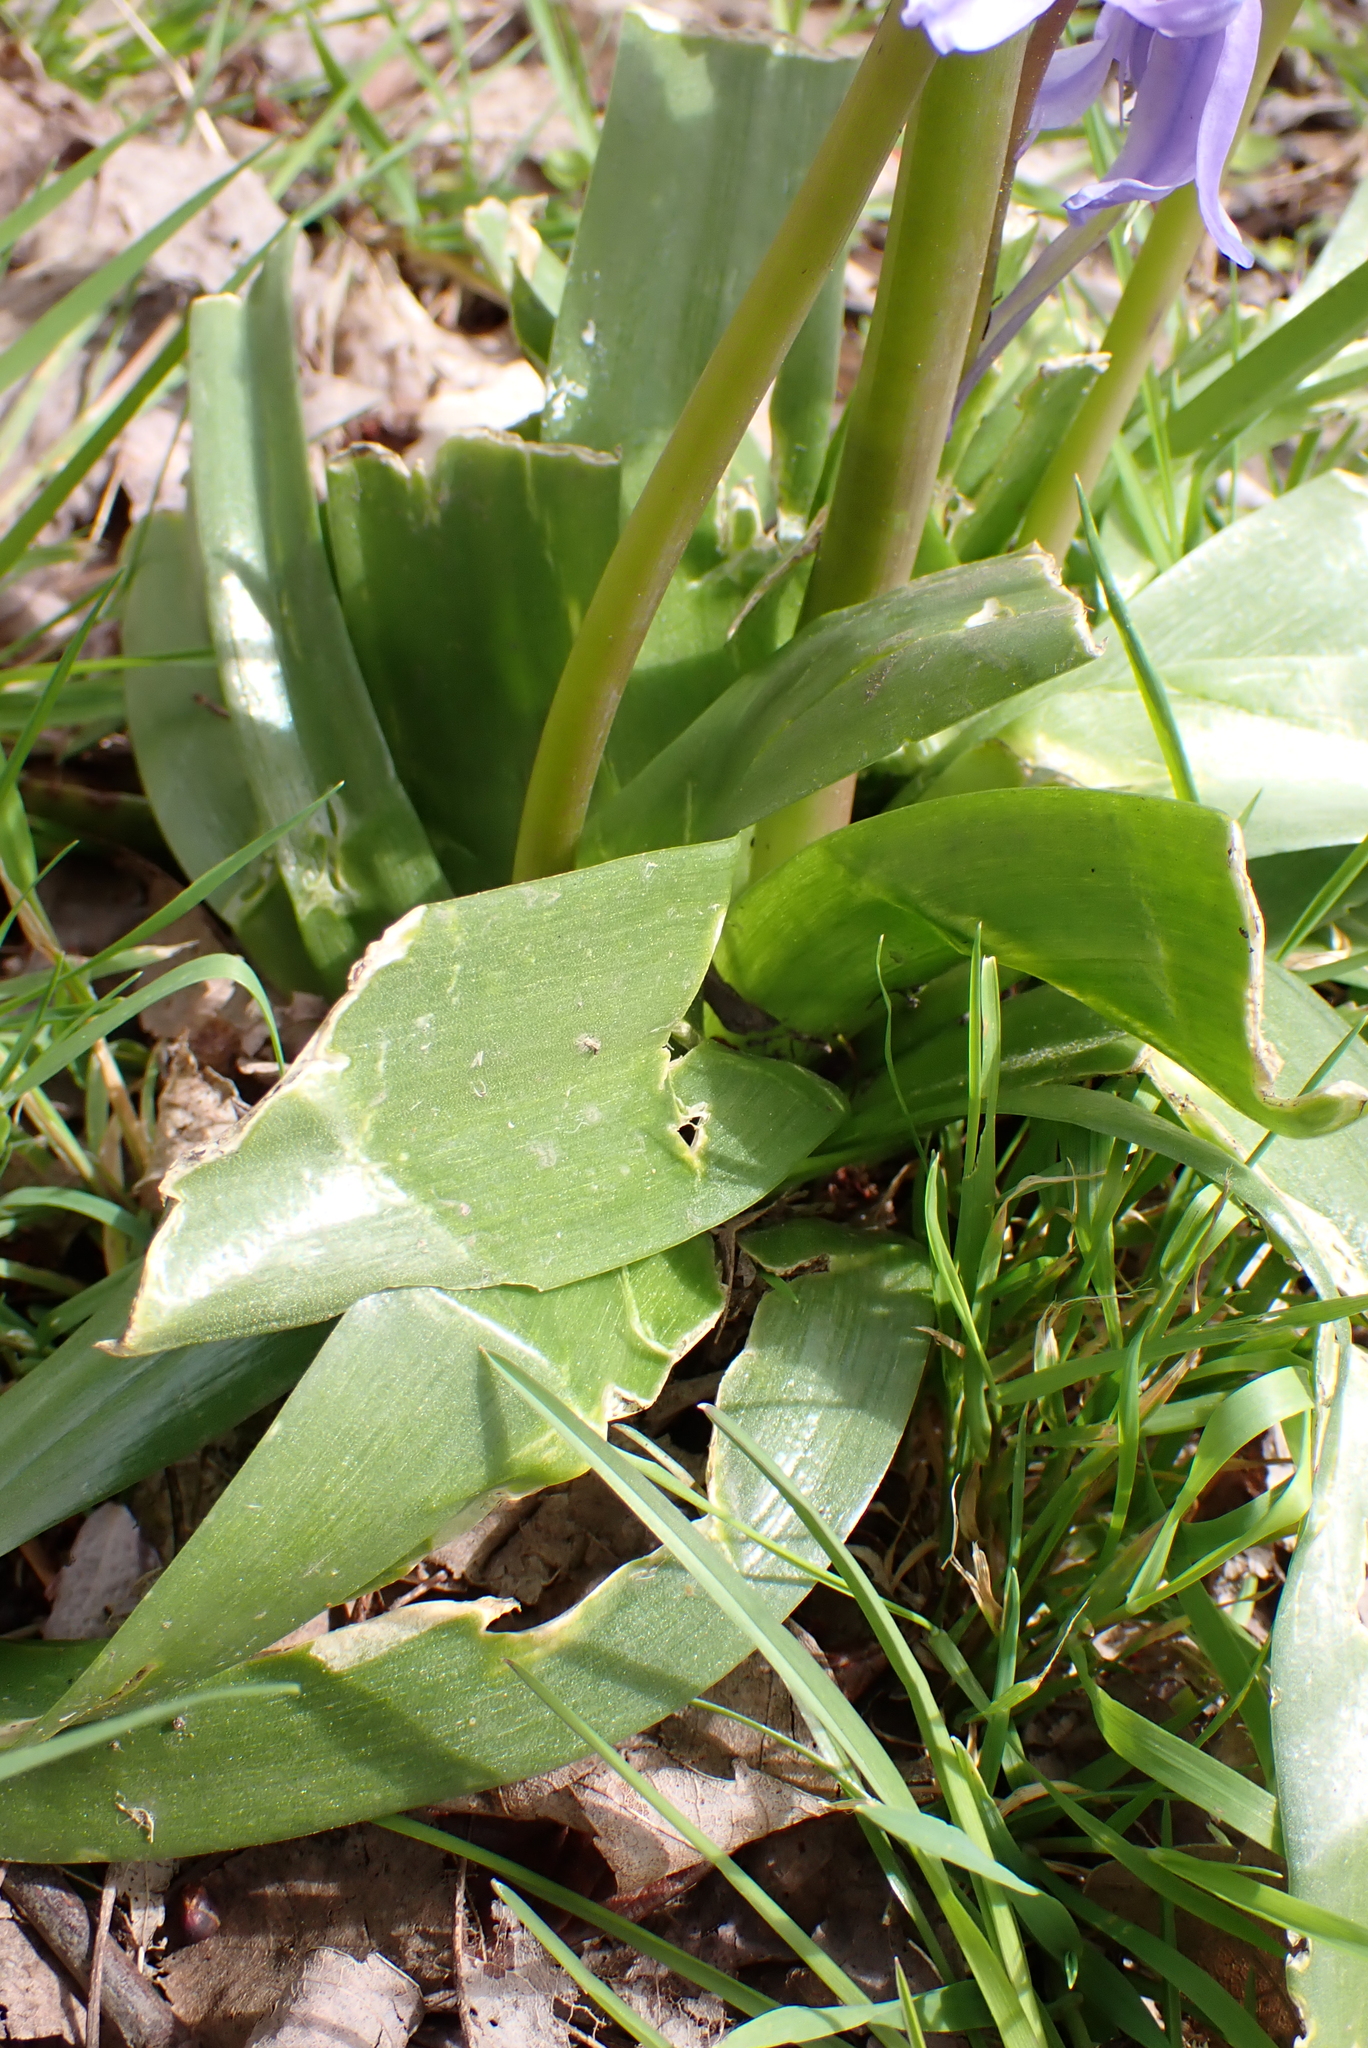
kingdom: Plantae
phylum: Tracheophyta
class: Liliopsida
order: Asparagales
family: Asparagaceae
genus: Hyacinthoides
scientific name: Hyacinthoides massartiana
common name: Hyacinthoides
